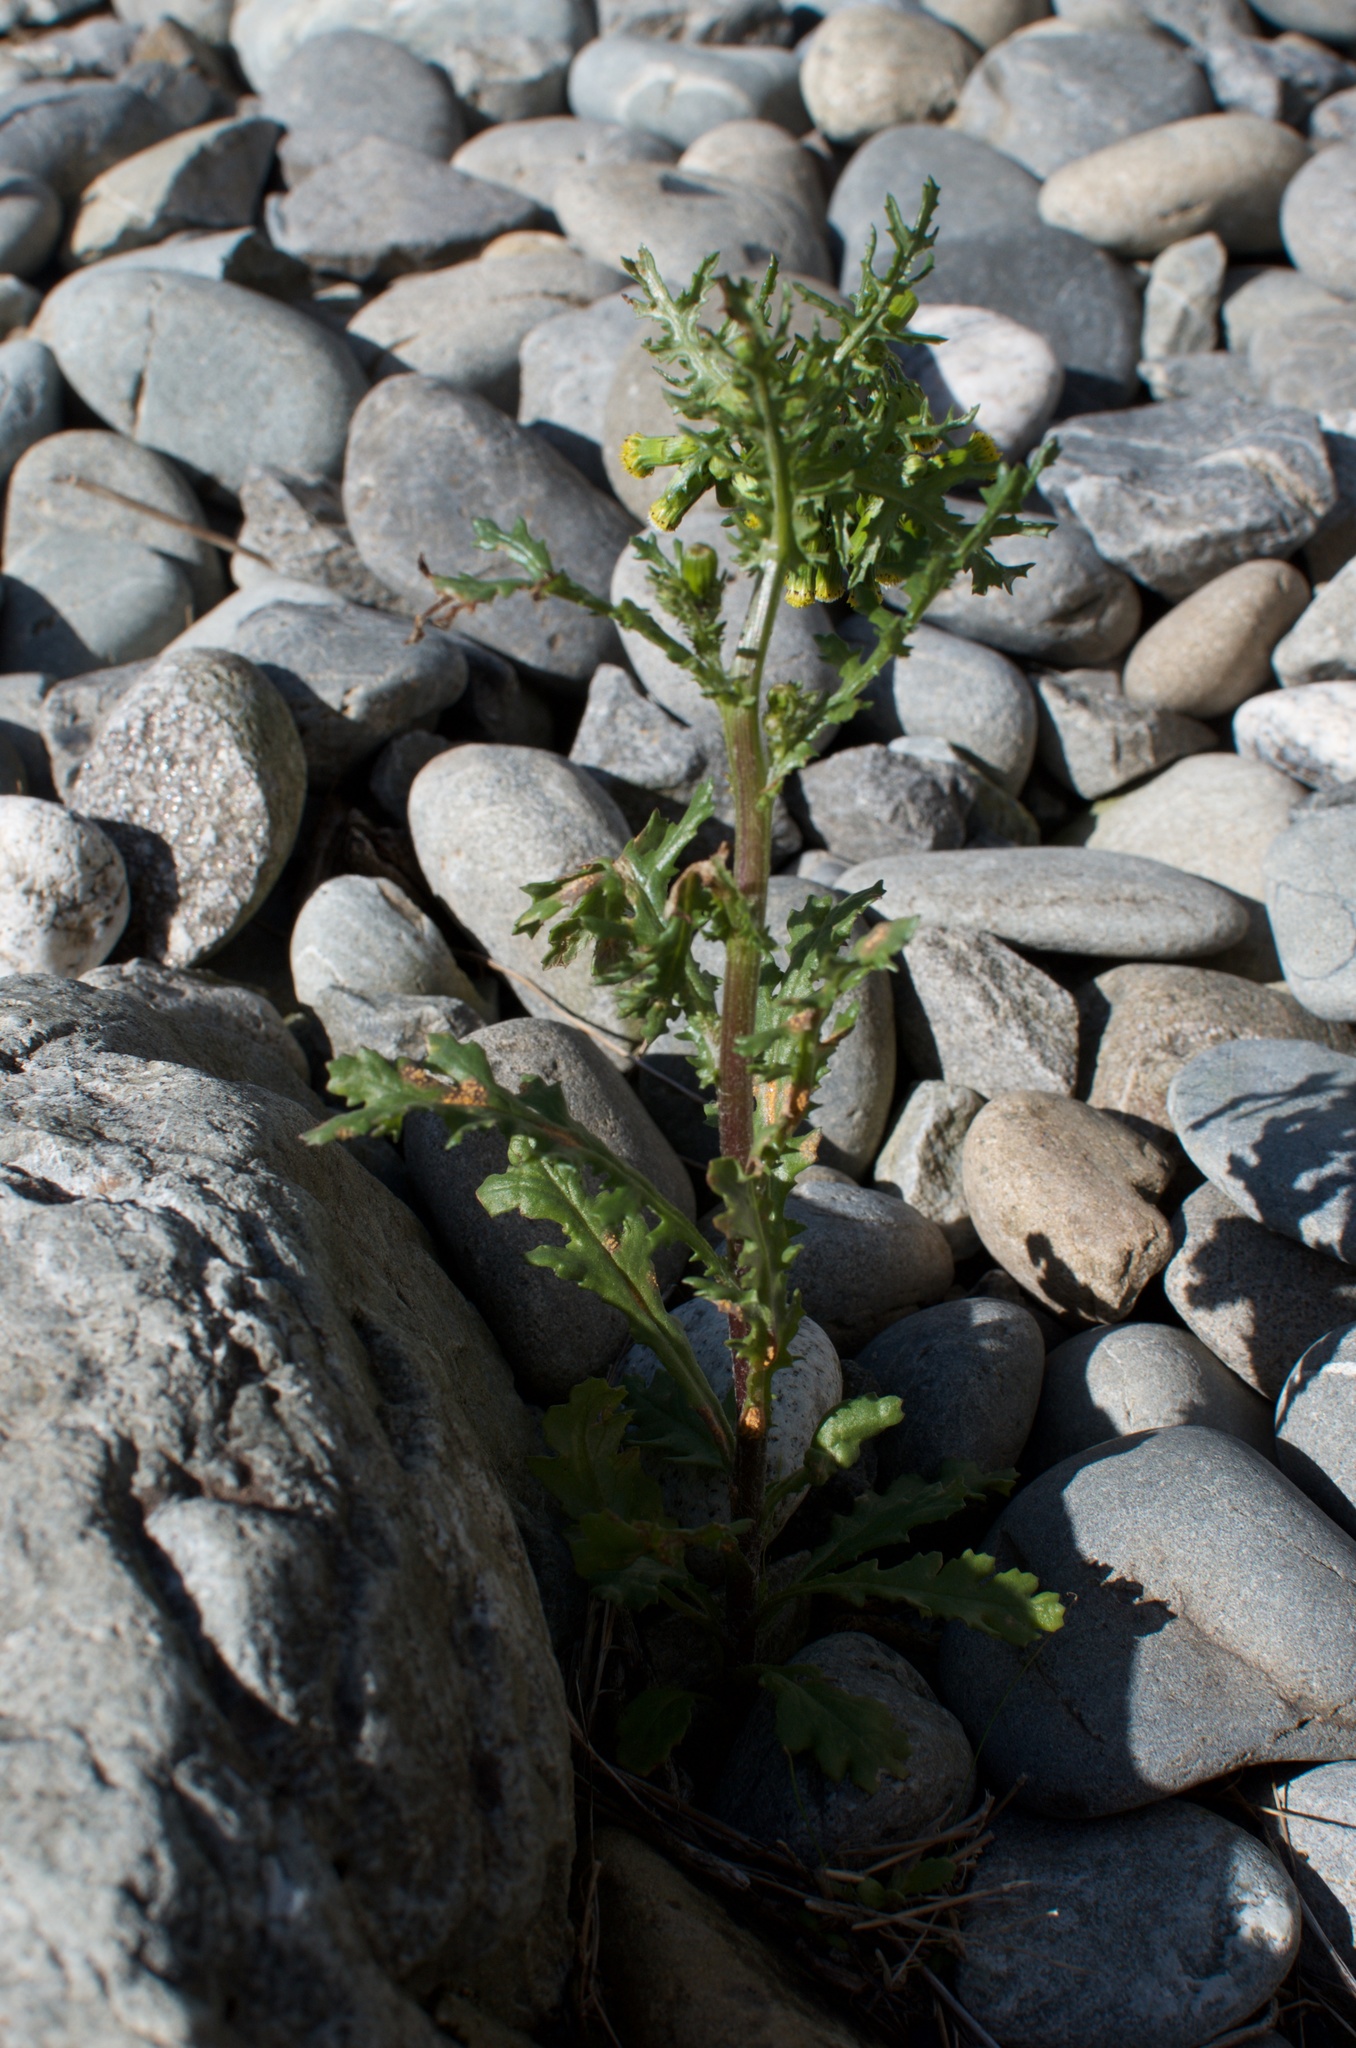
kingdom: Fungi
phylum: Basidiomycota
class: Pucciniomycetes
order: Pucciniales
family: Pucciniaceae
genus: Puccinia
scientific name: Puccinia lagenophorae
